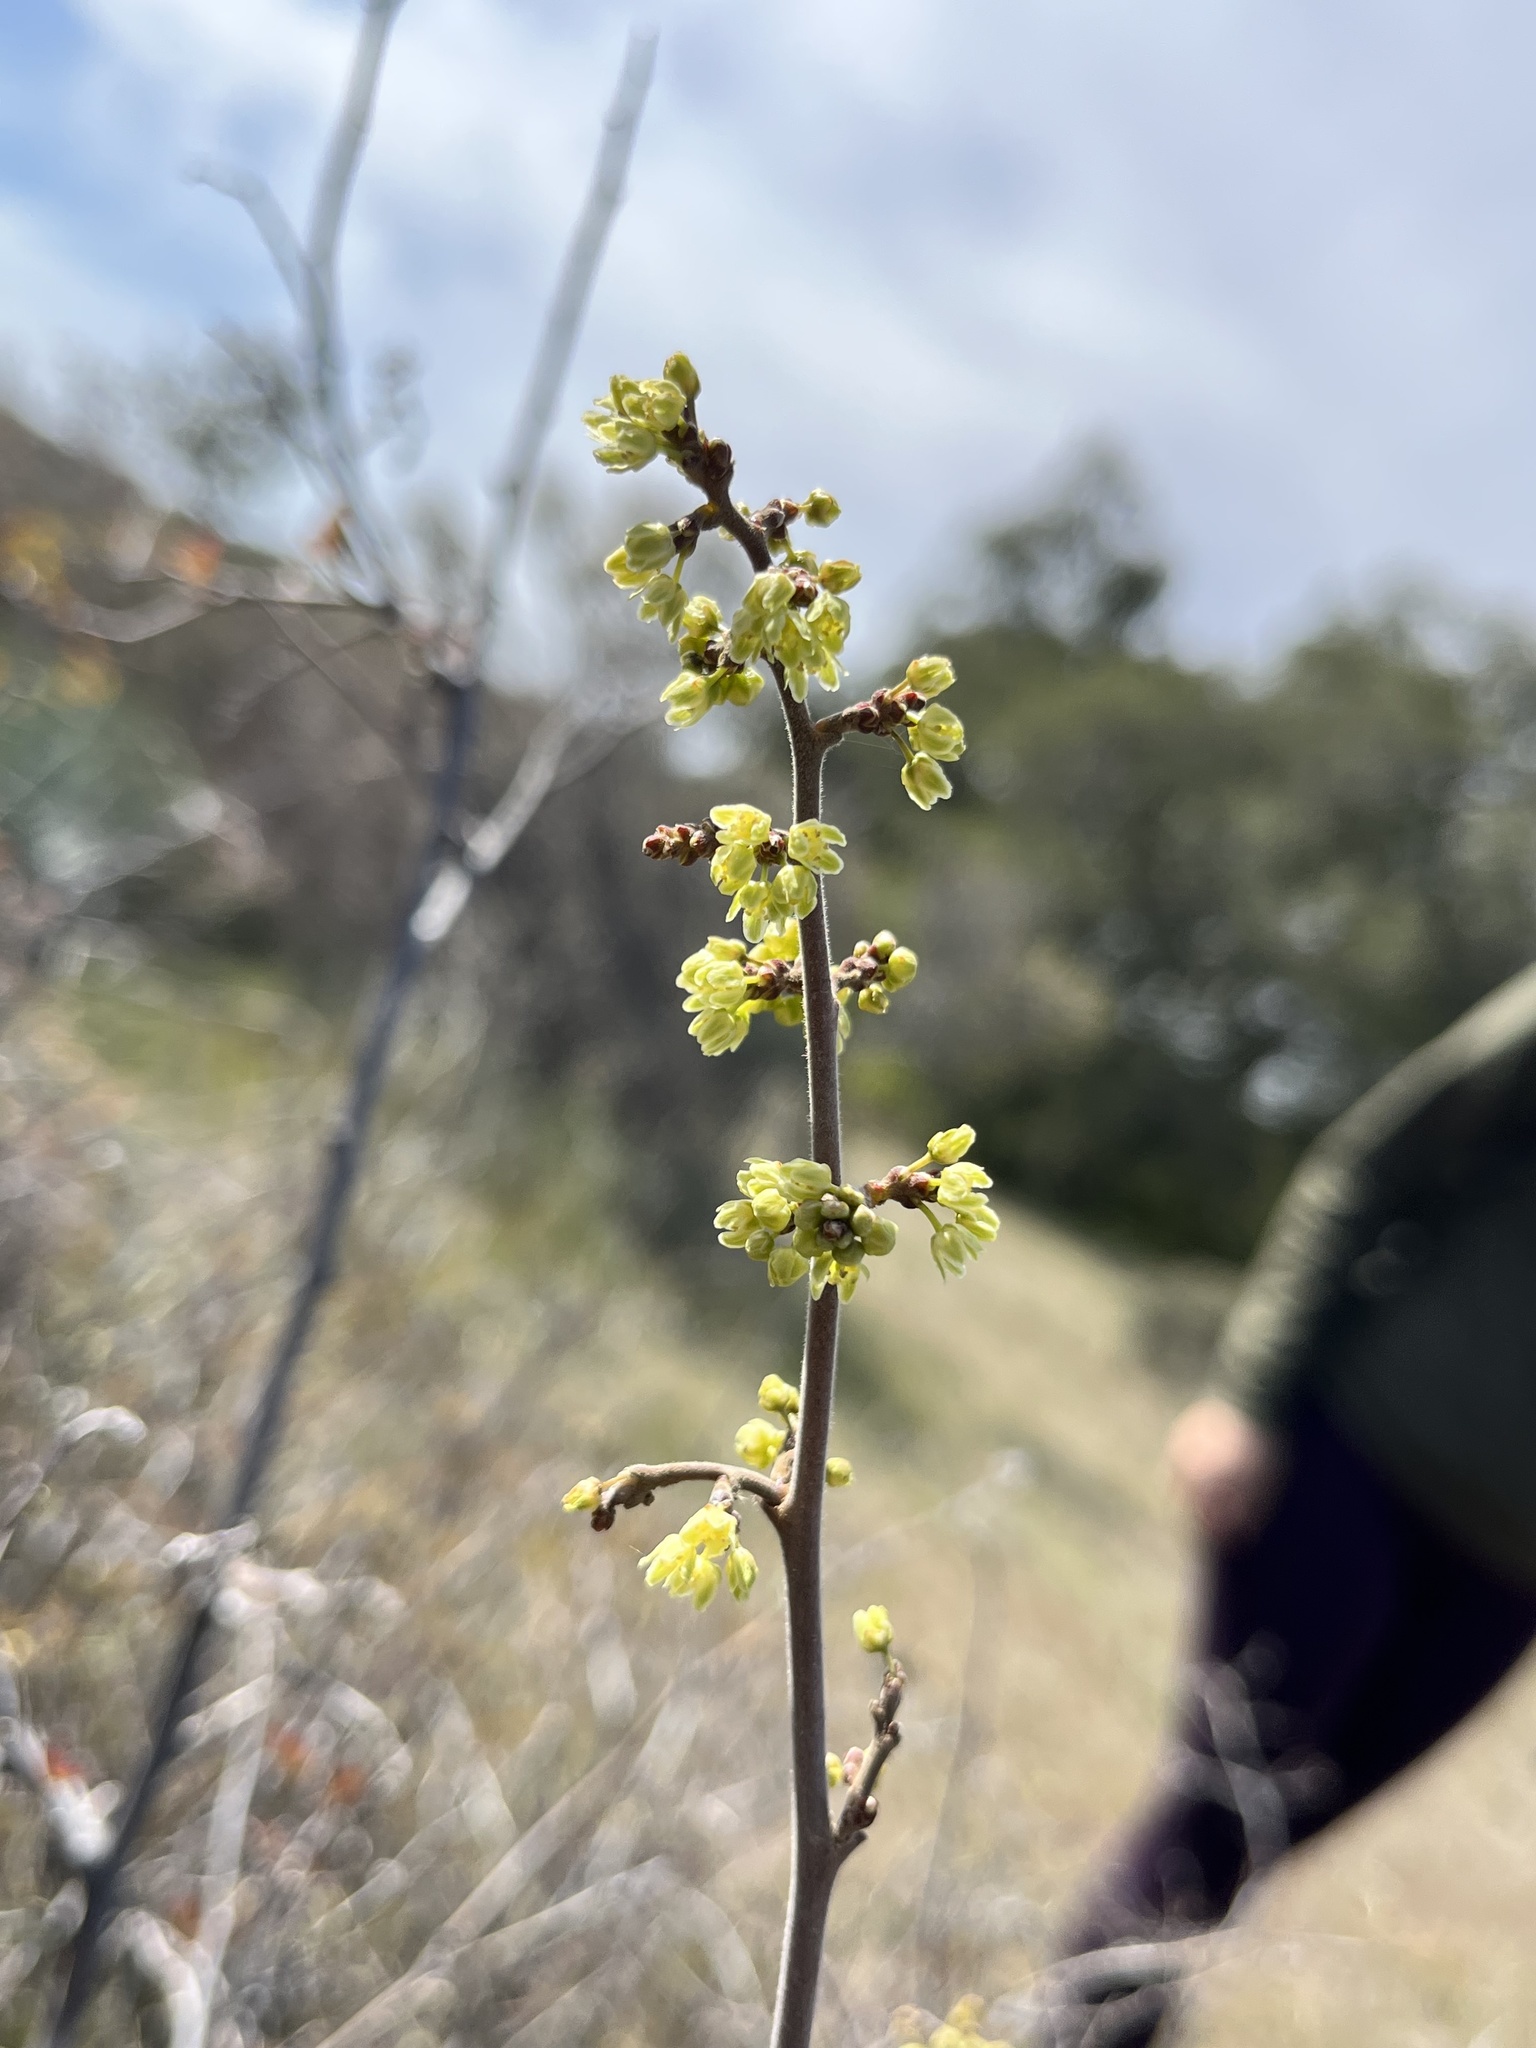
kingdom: Plantae
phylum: Tracheophyta
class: Magnoliopsida
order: Sapindales
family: Anacardiaceae
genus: Rhus
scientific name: Rhus aromatica
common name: Aromatic sumac
